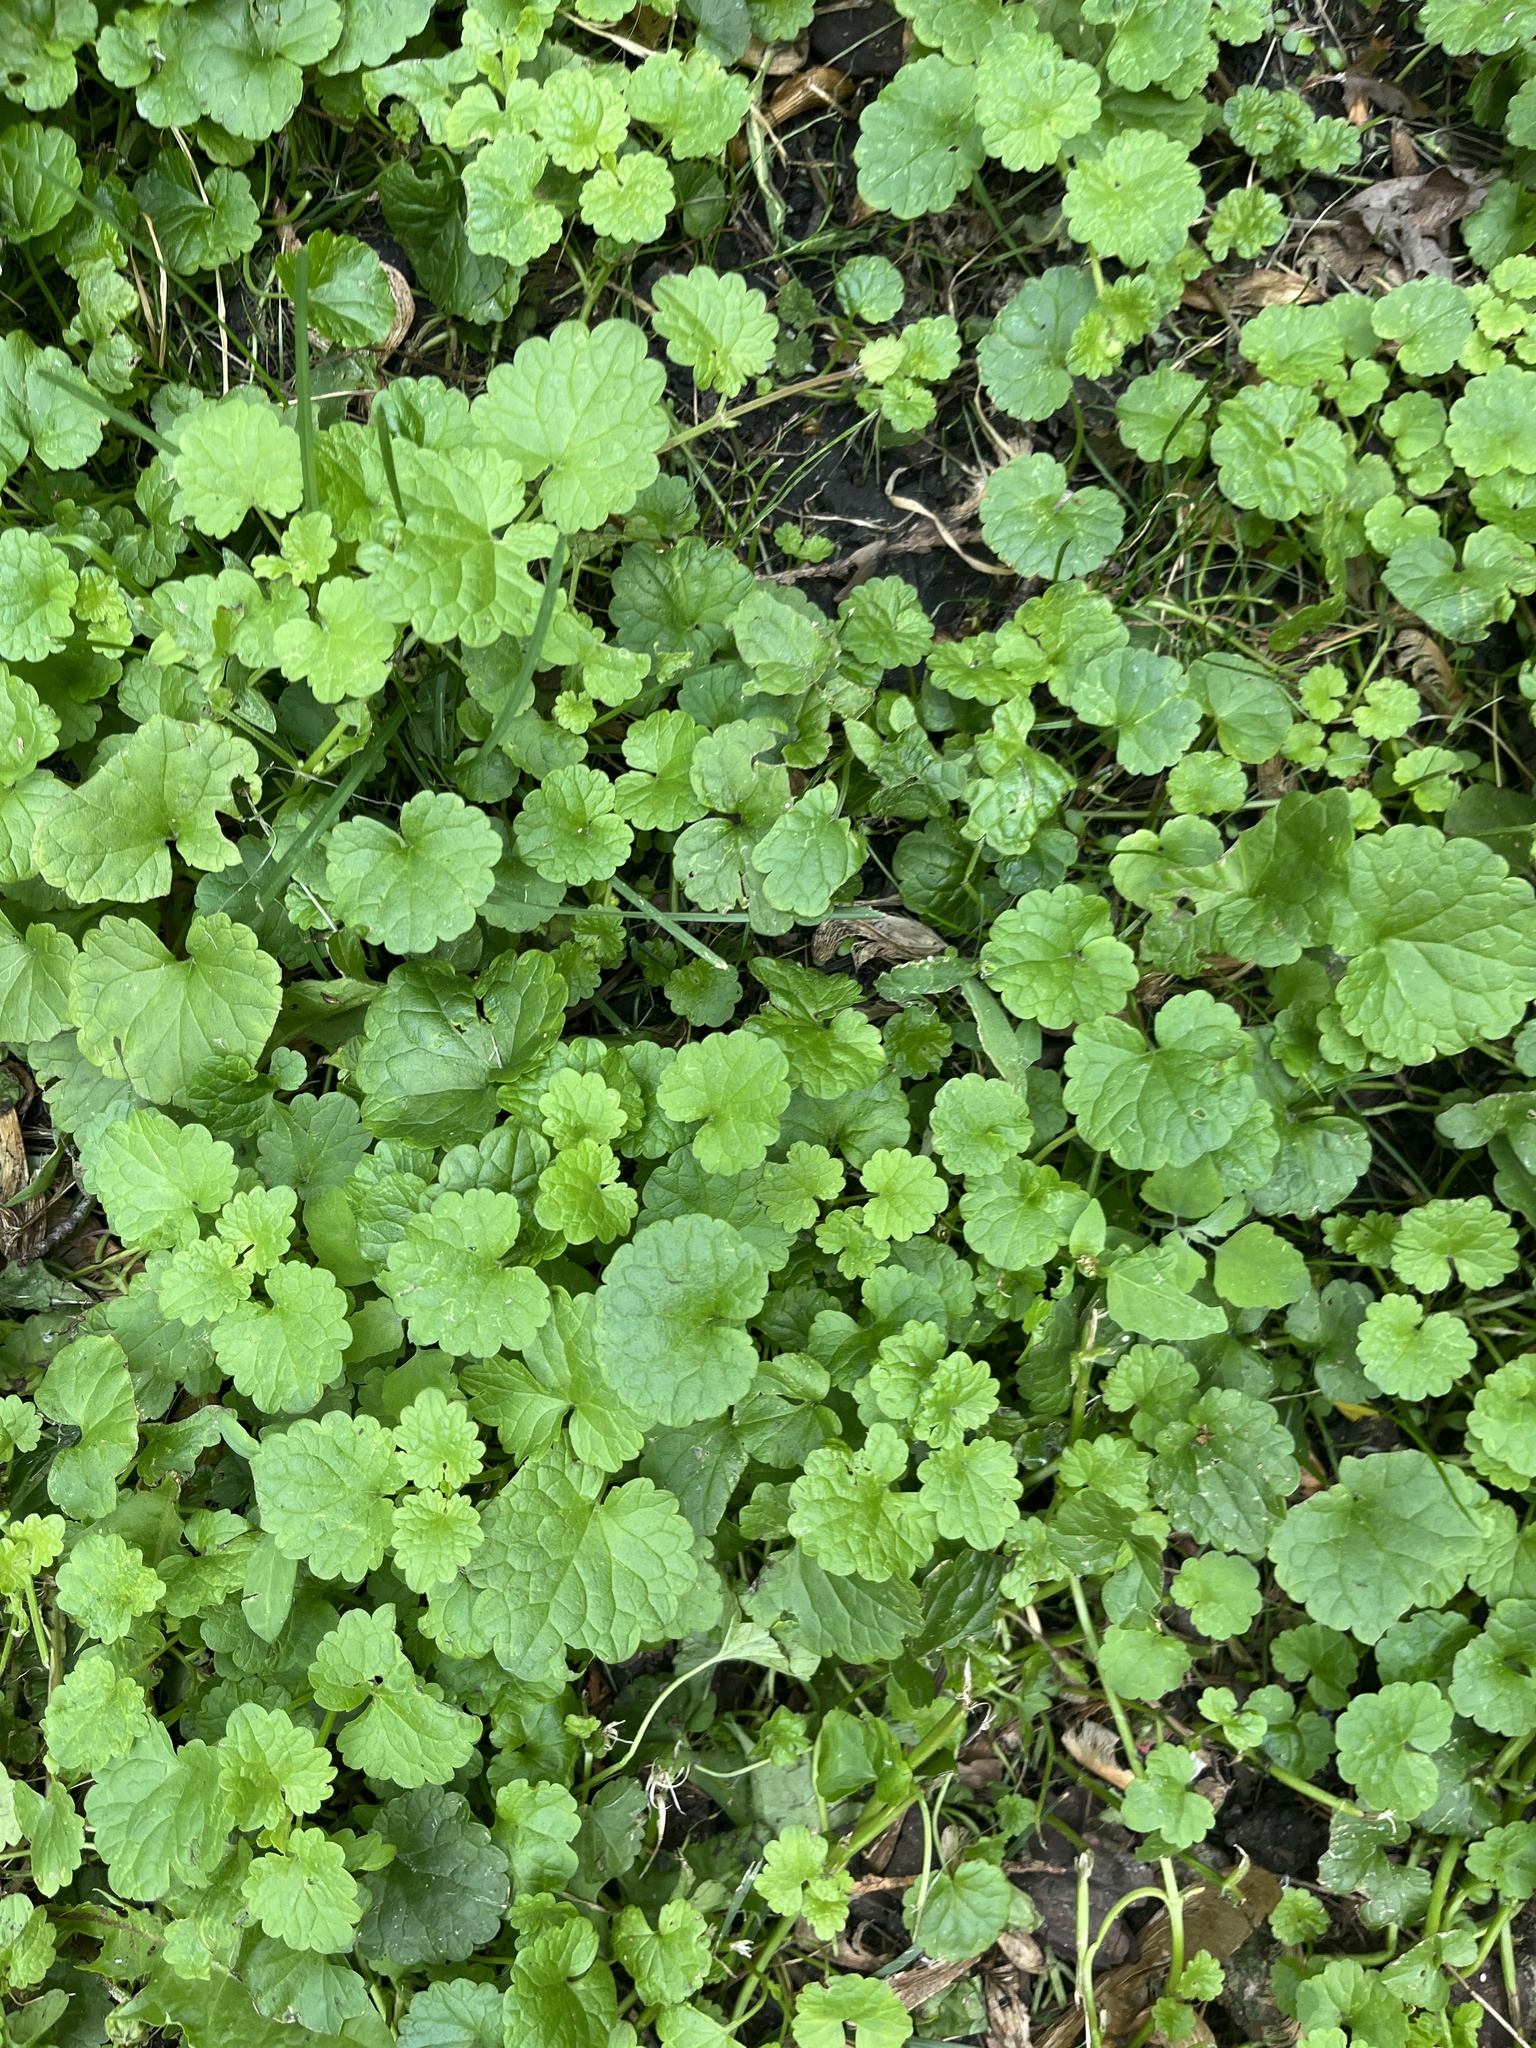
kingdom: Plantae
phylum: Tracheophyta
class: Magnoliopsida
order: Lamiales
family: Lamiaceae
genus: Glechoma
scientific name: Glechoma hederacea
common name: Ground ivy
